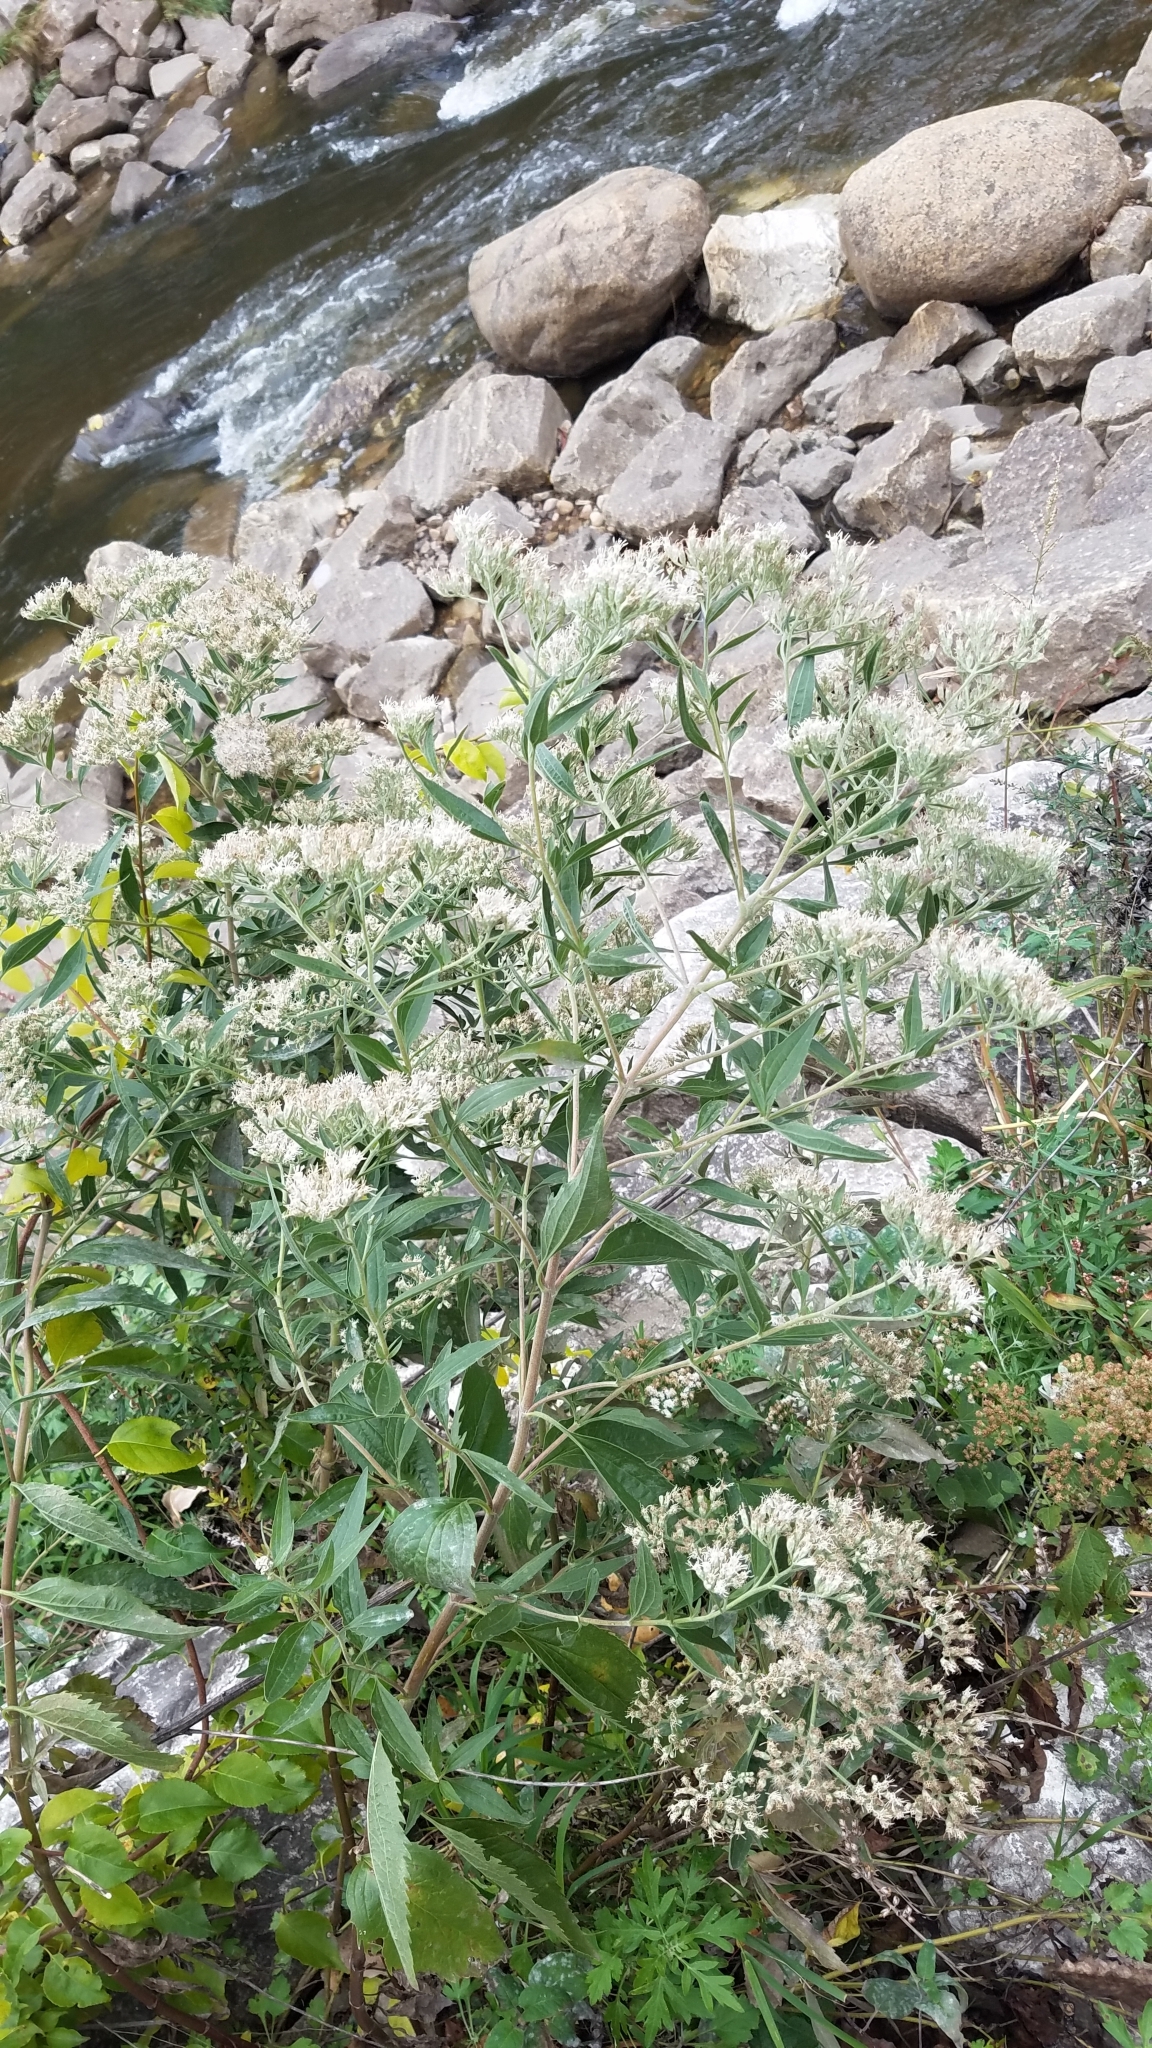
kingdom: Plantae
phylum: Tracheophyta
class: Magnoliopsida
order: Asterales
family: Asteraceae
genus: Eupatorium
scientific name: Eupatorium serotinum
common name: Late boneset
